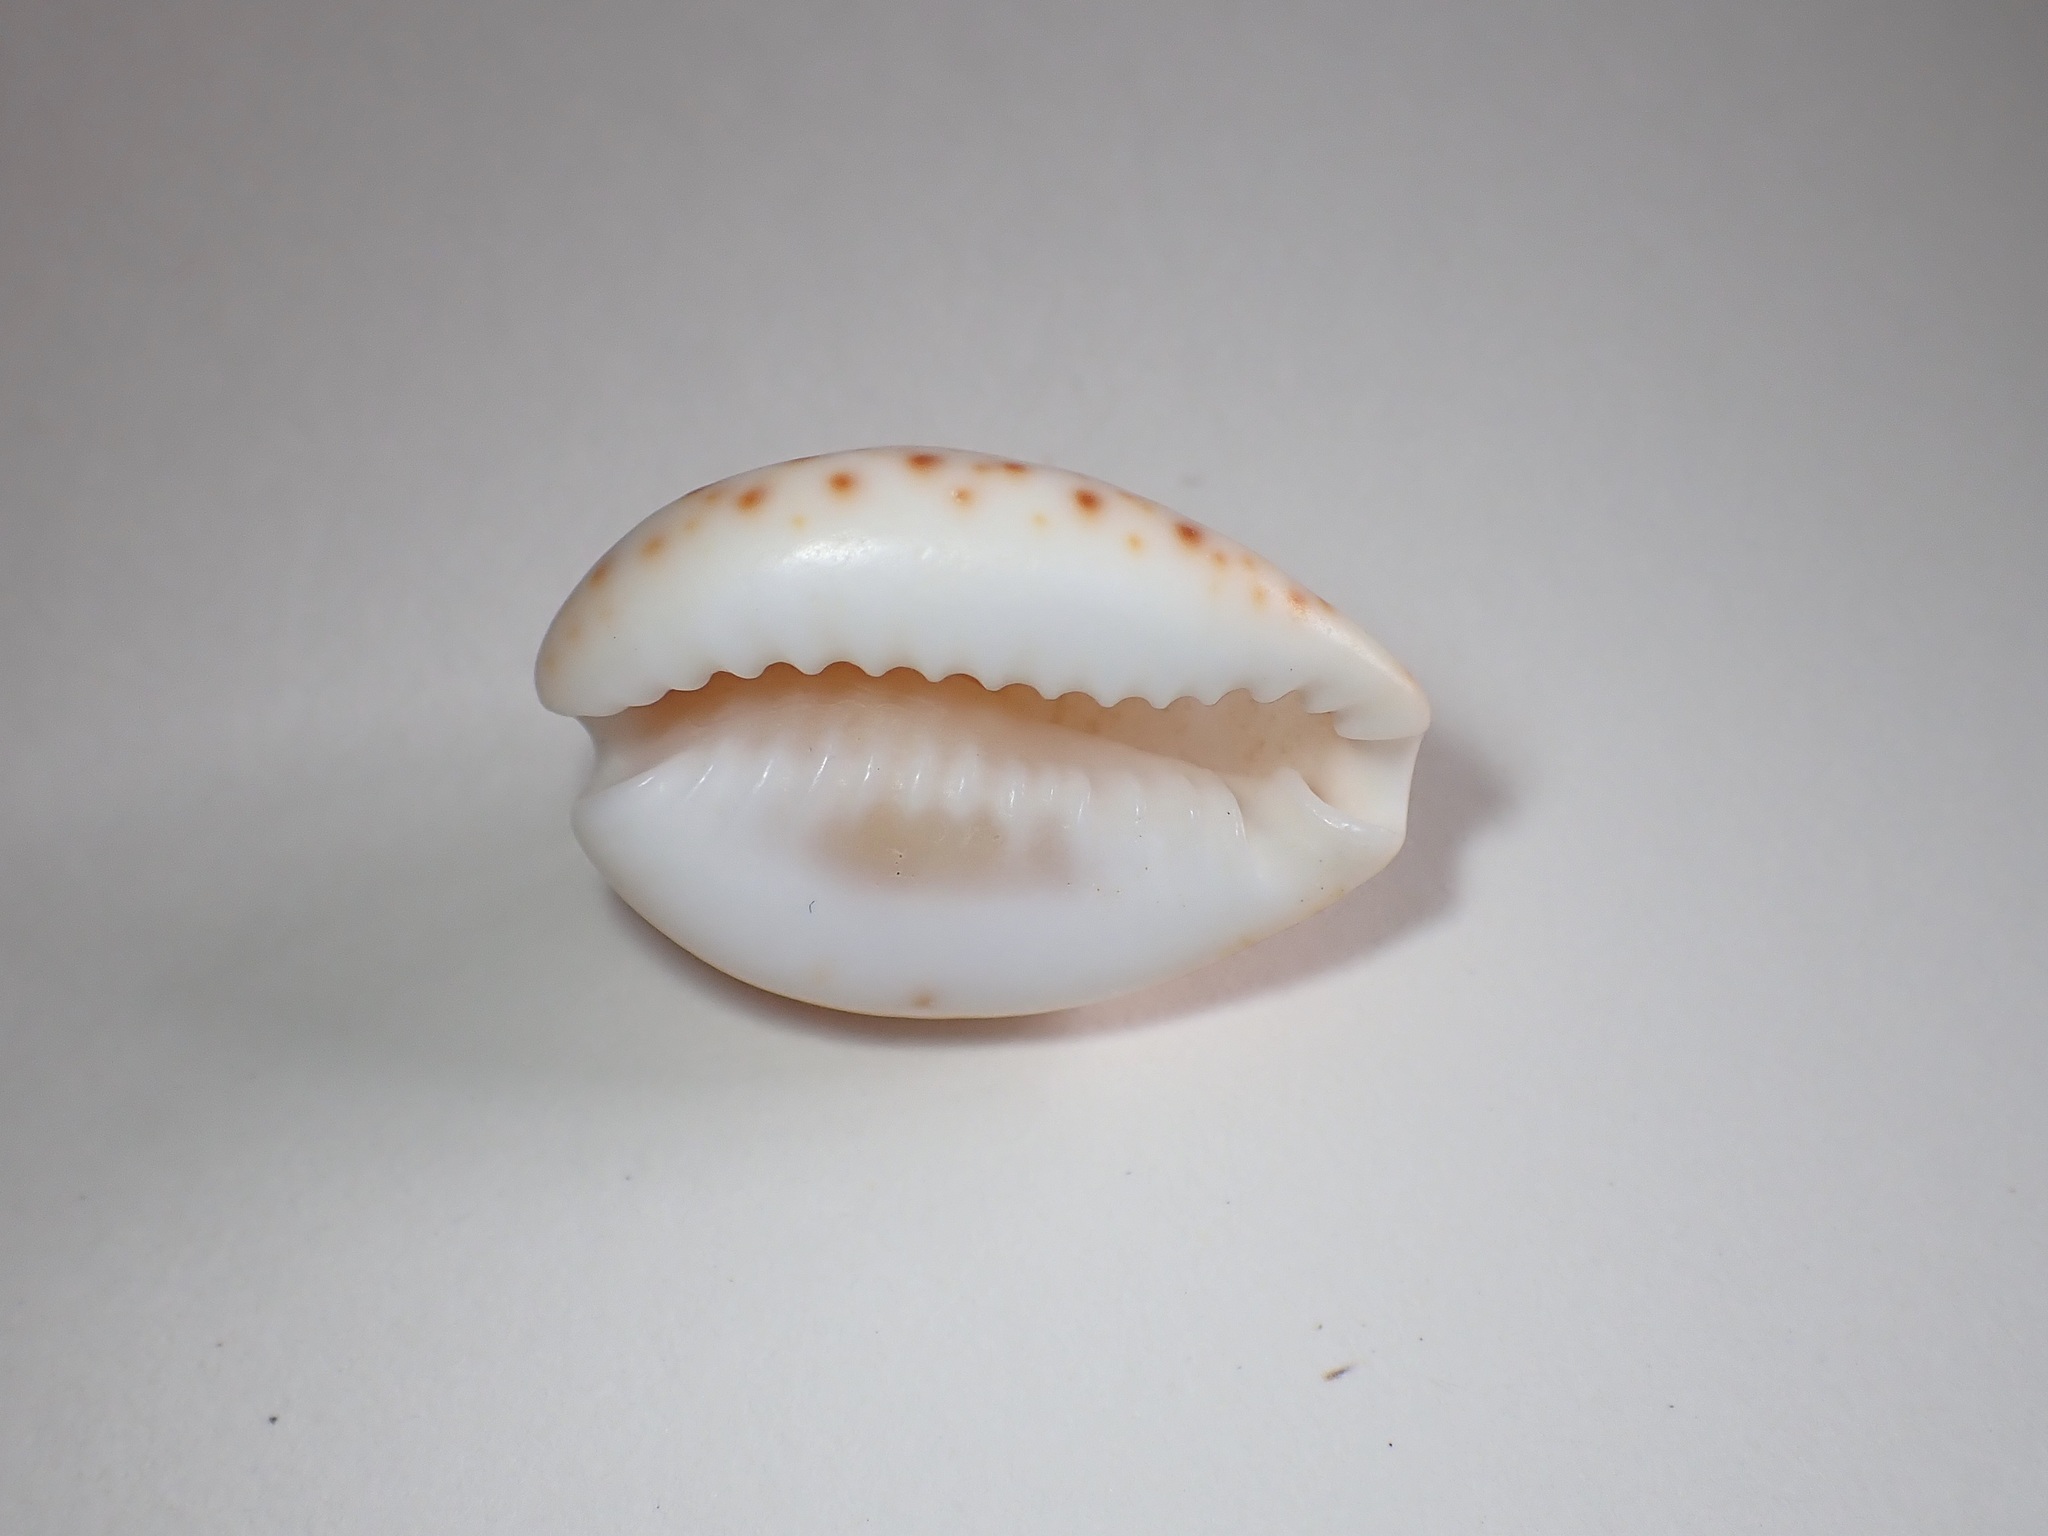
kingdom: Animalia
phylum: Mollusca
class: Gastropoda
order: Littorinimorpha
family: Cypraeidae
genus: Naria
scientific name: Naria turdus
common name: Thrush cowrie
